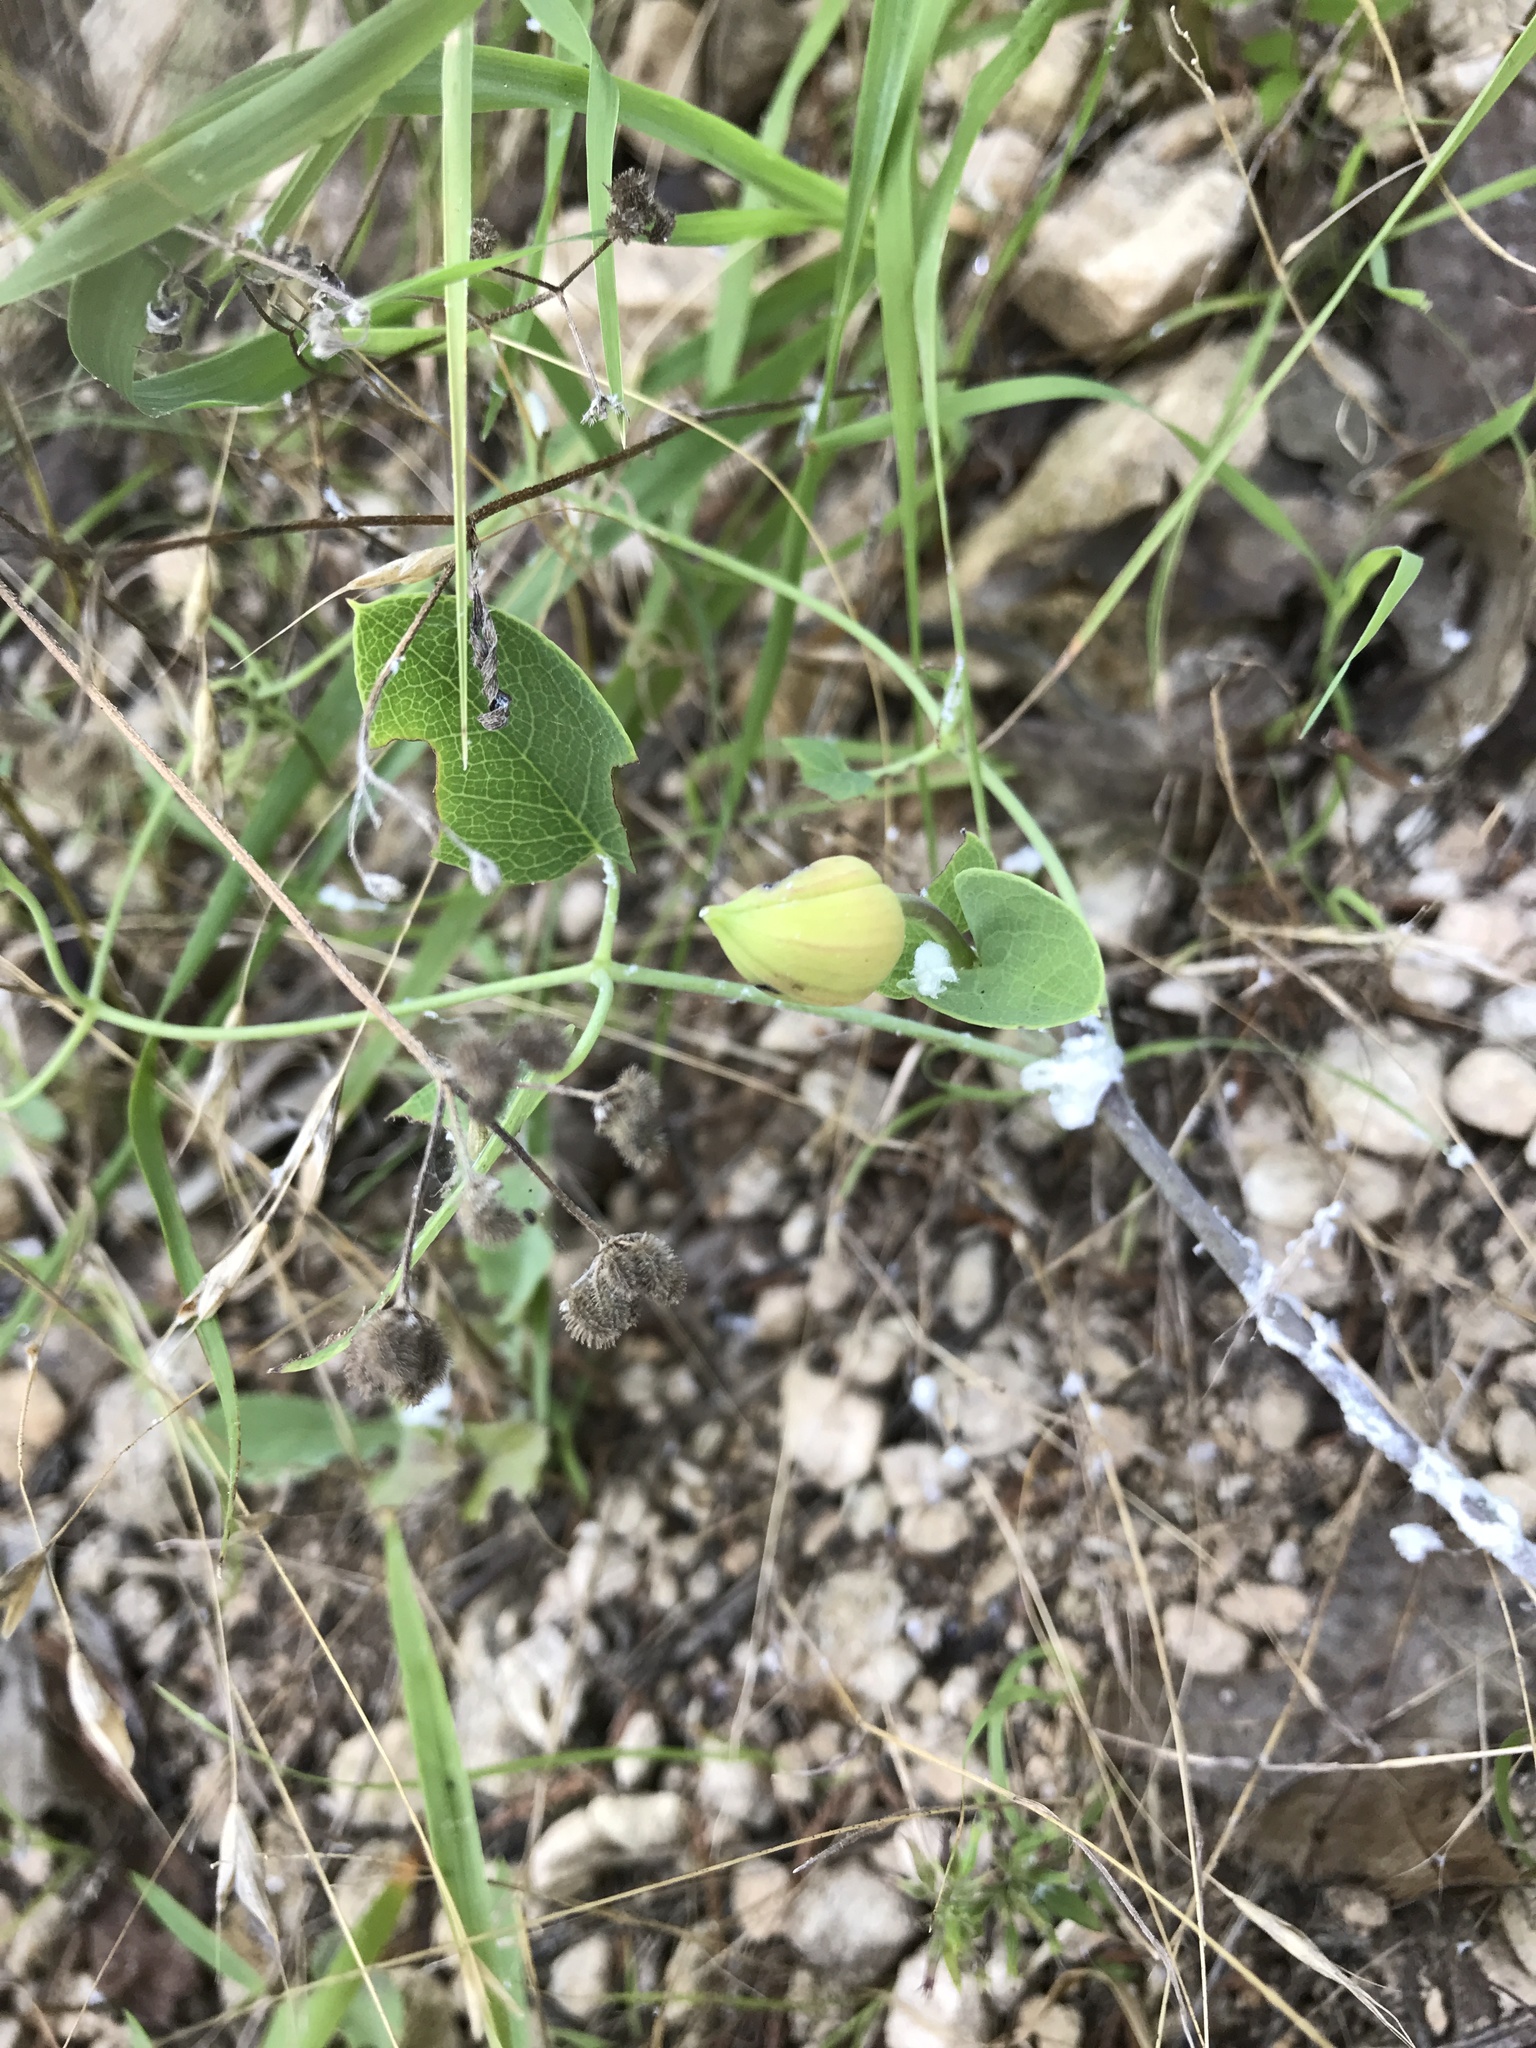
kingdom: Plantae
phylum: Tracheophyta
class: Magnoliopsida
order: Ranunculales
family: Ranunculaceae
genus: Clematis
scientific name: Clematis texensis
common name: Crimson clematis
